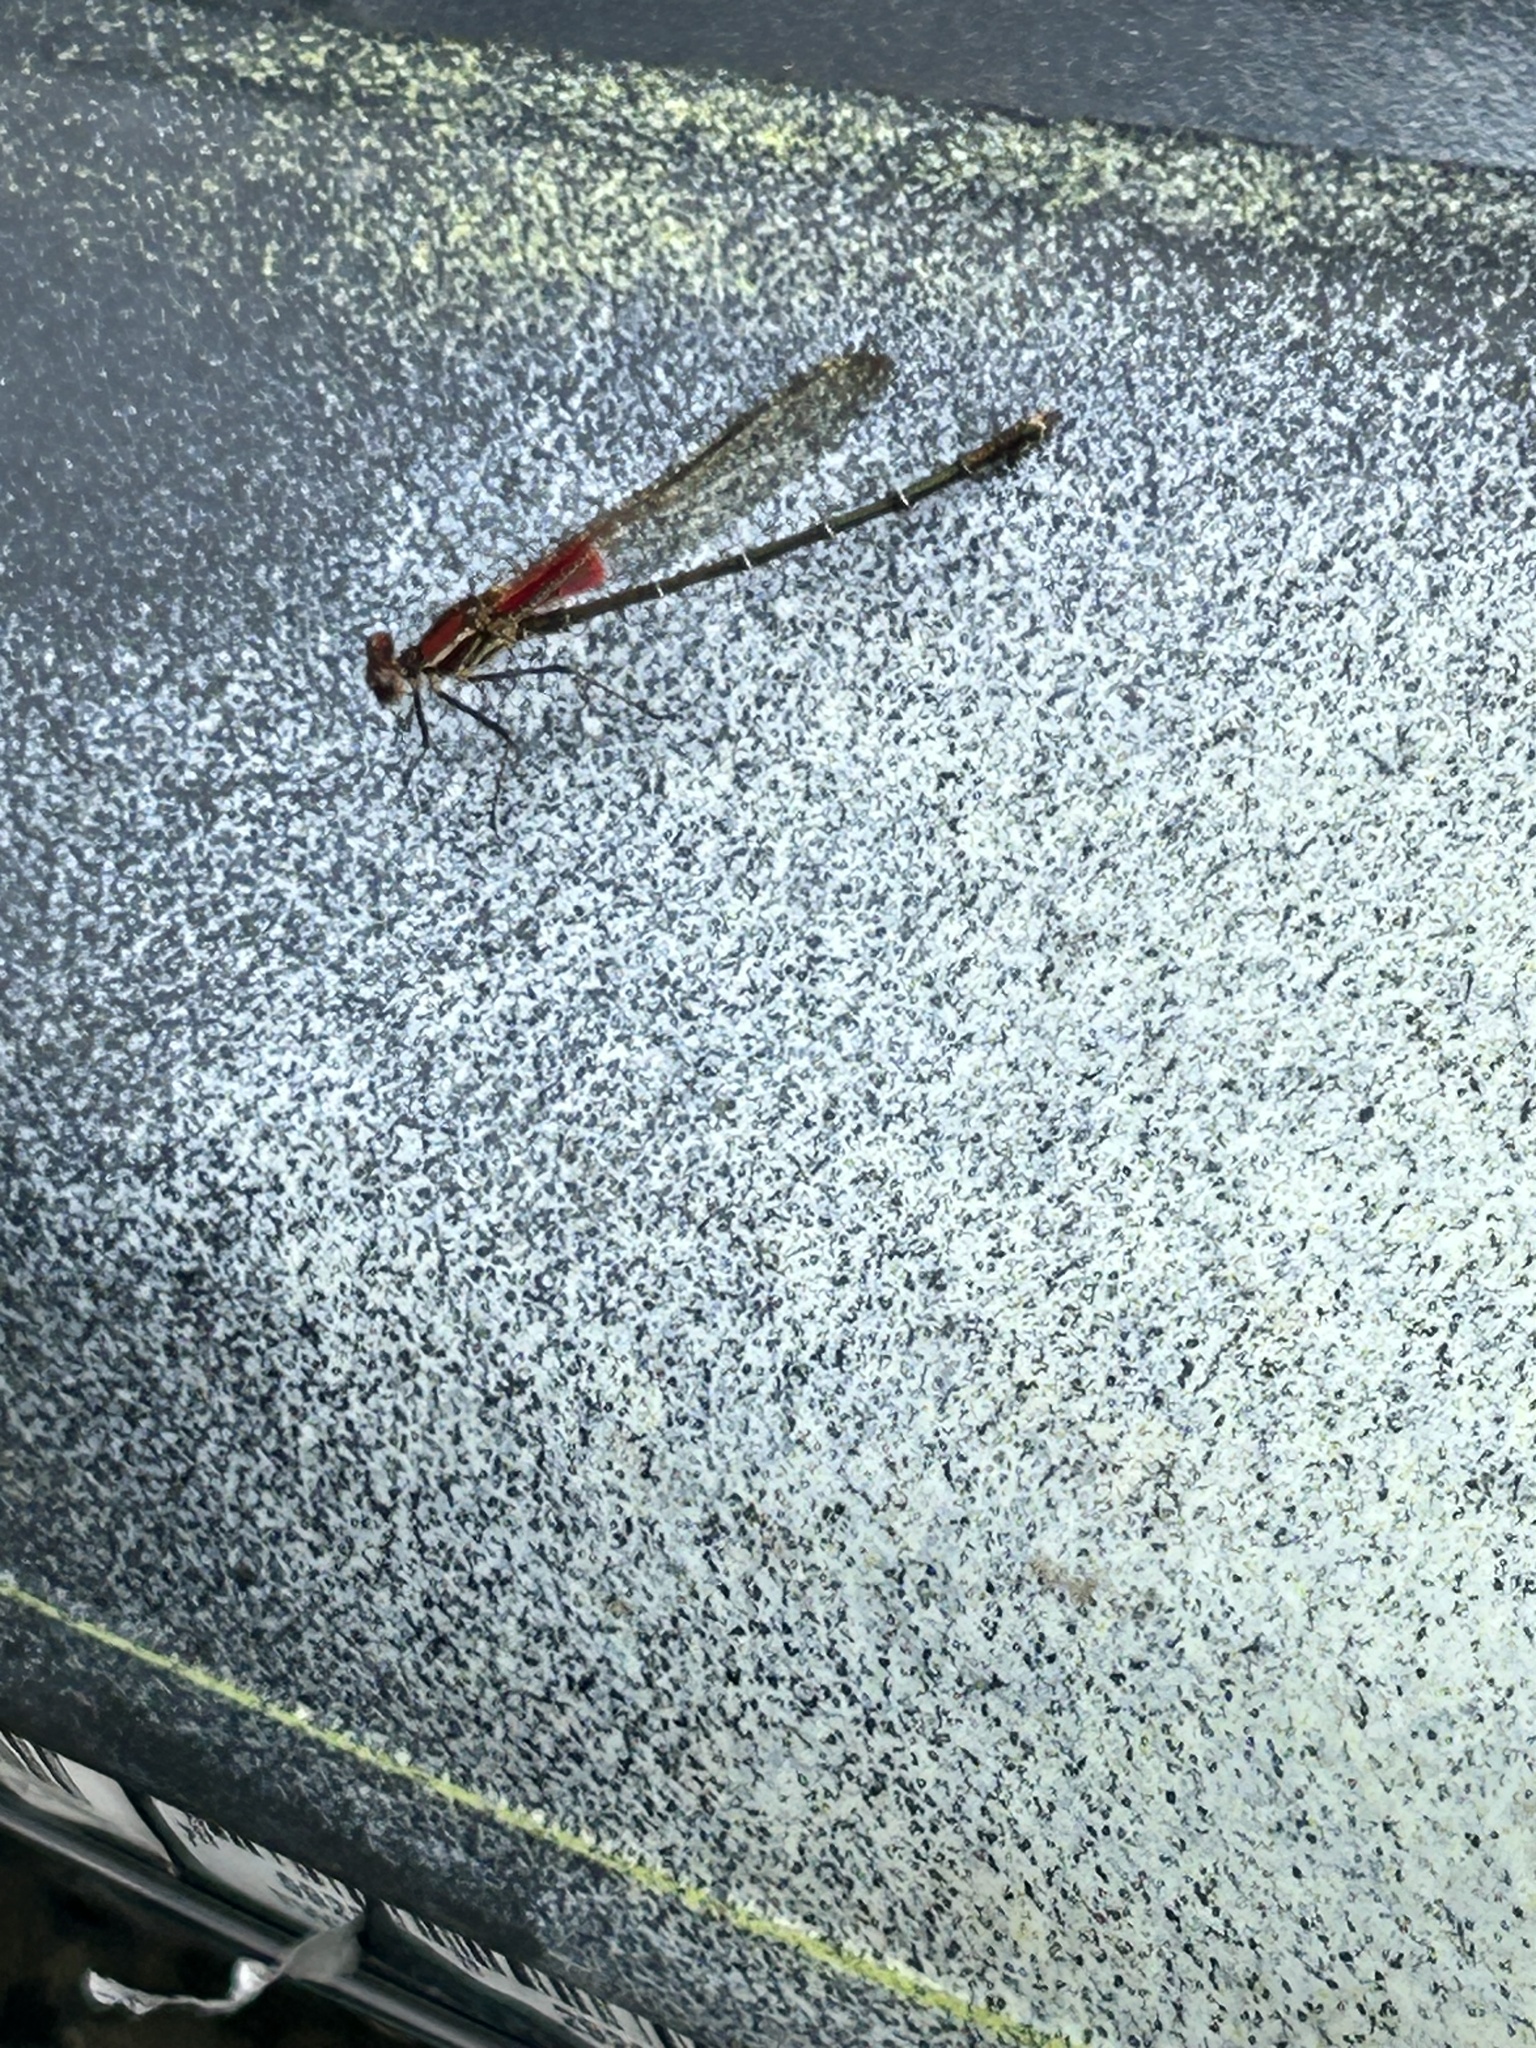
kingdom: Animalia
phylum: Arthropoda
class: Insecta
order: Odonata
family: Calopterygidae
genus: Hetaerina
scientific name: Hetaerina americana
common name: American rubyspot
